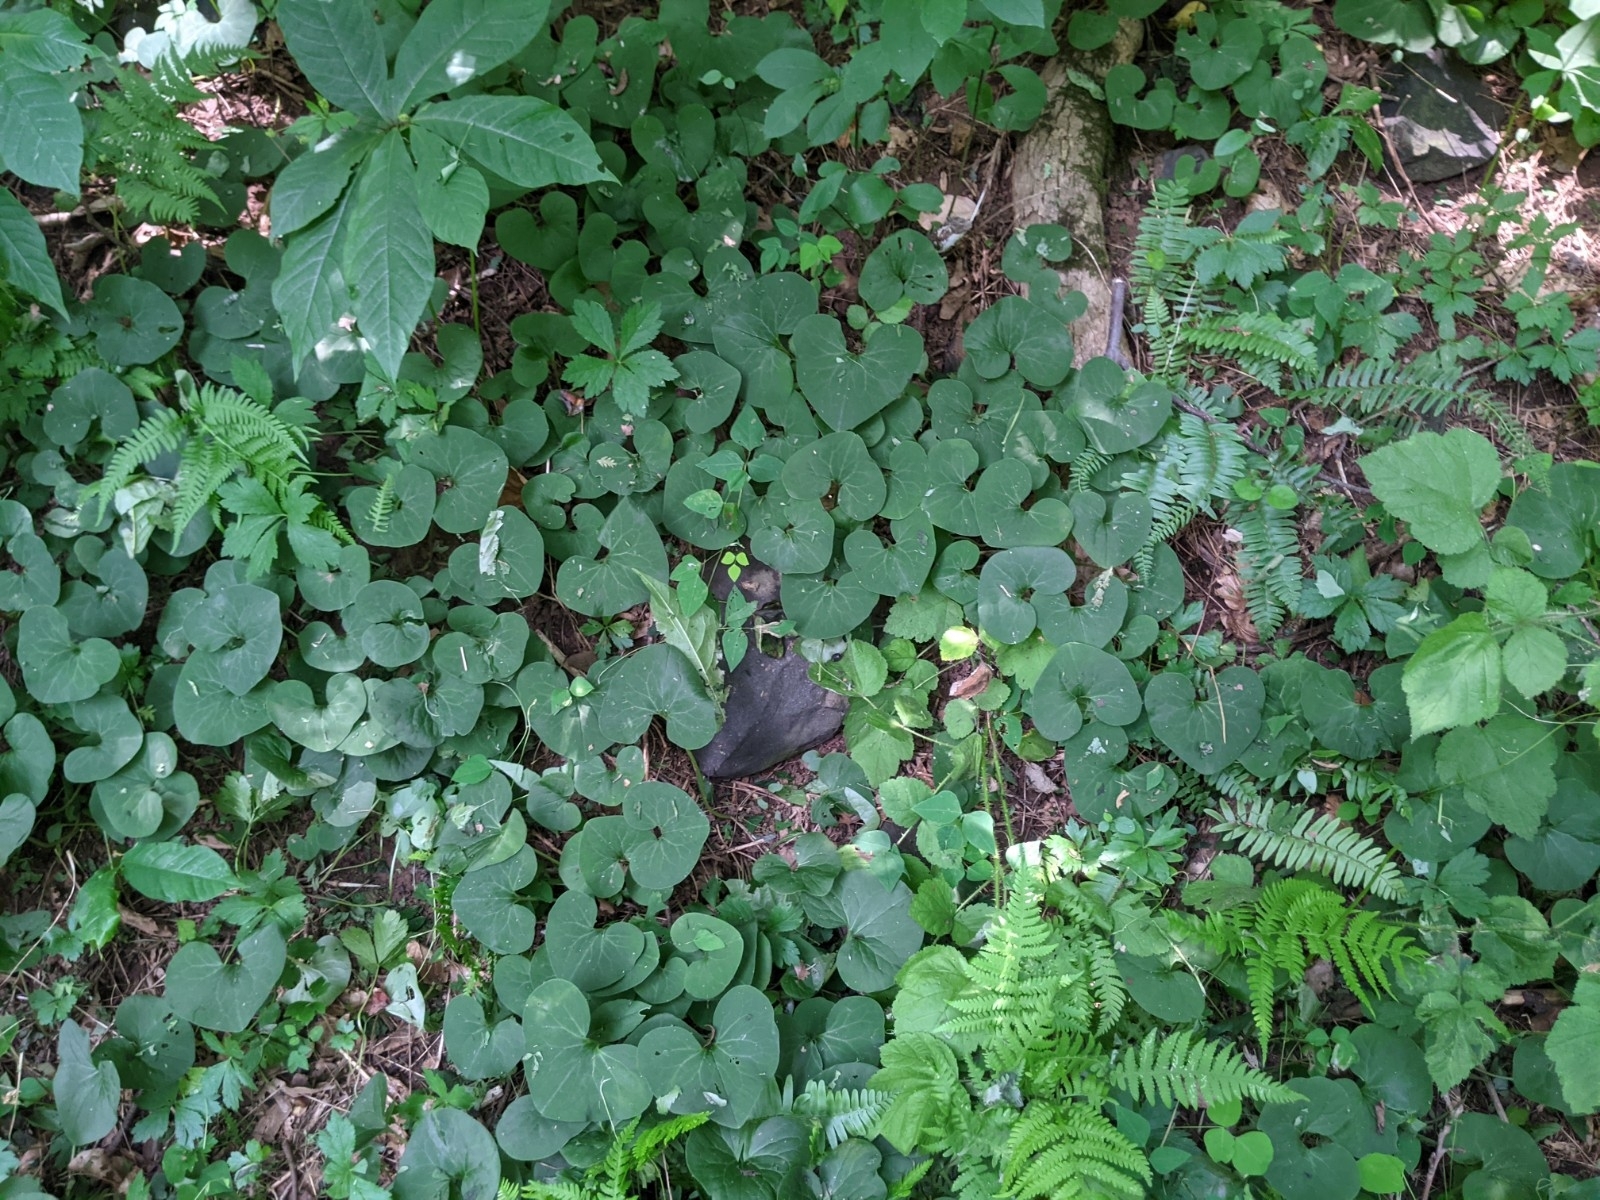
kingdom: Plantae
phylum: Tracheophyta
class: Magnoliopsida
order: Piperales
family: Aristolochiaceae
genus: Asarum
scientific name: Asarum canadense
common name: Wild ginger
